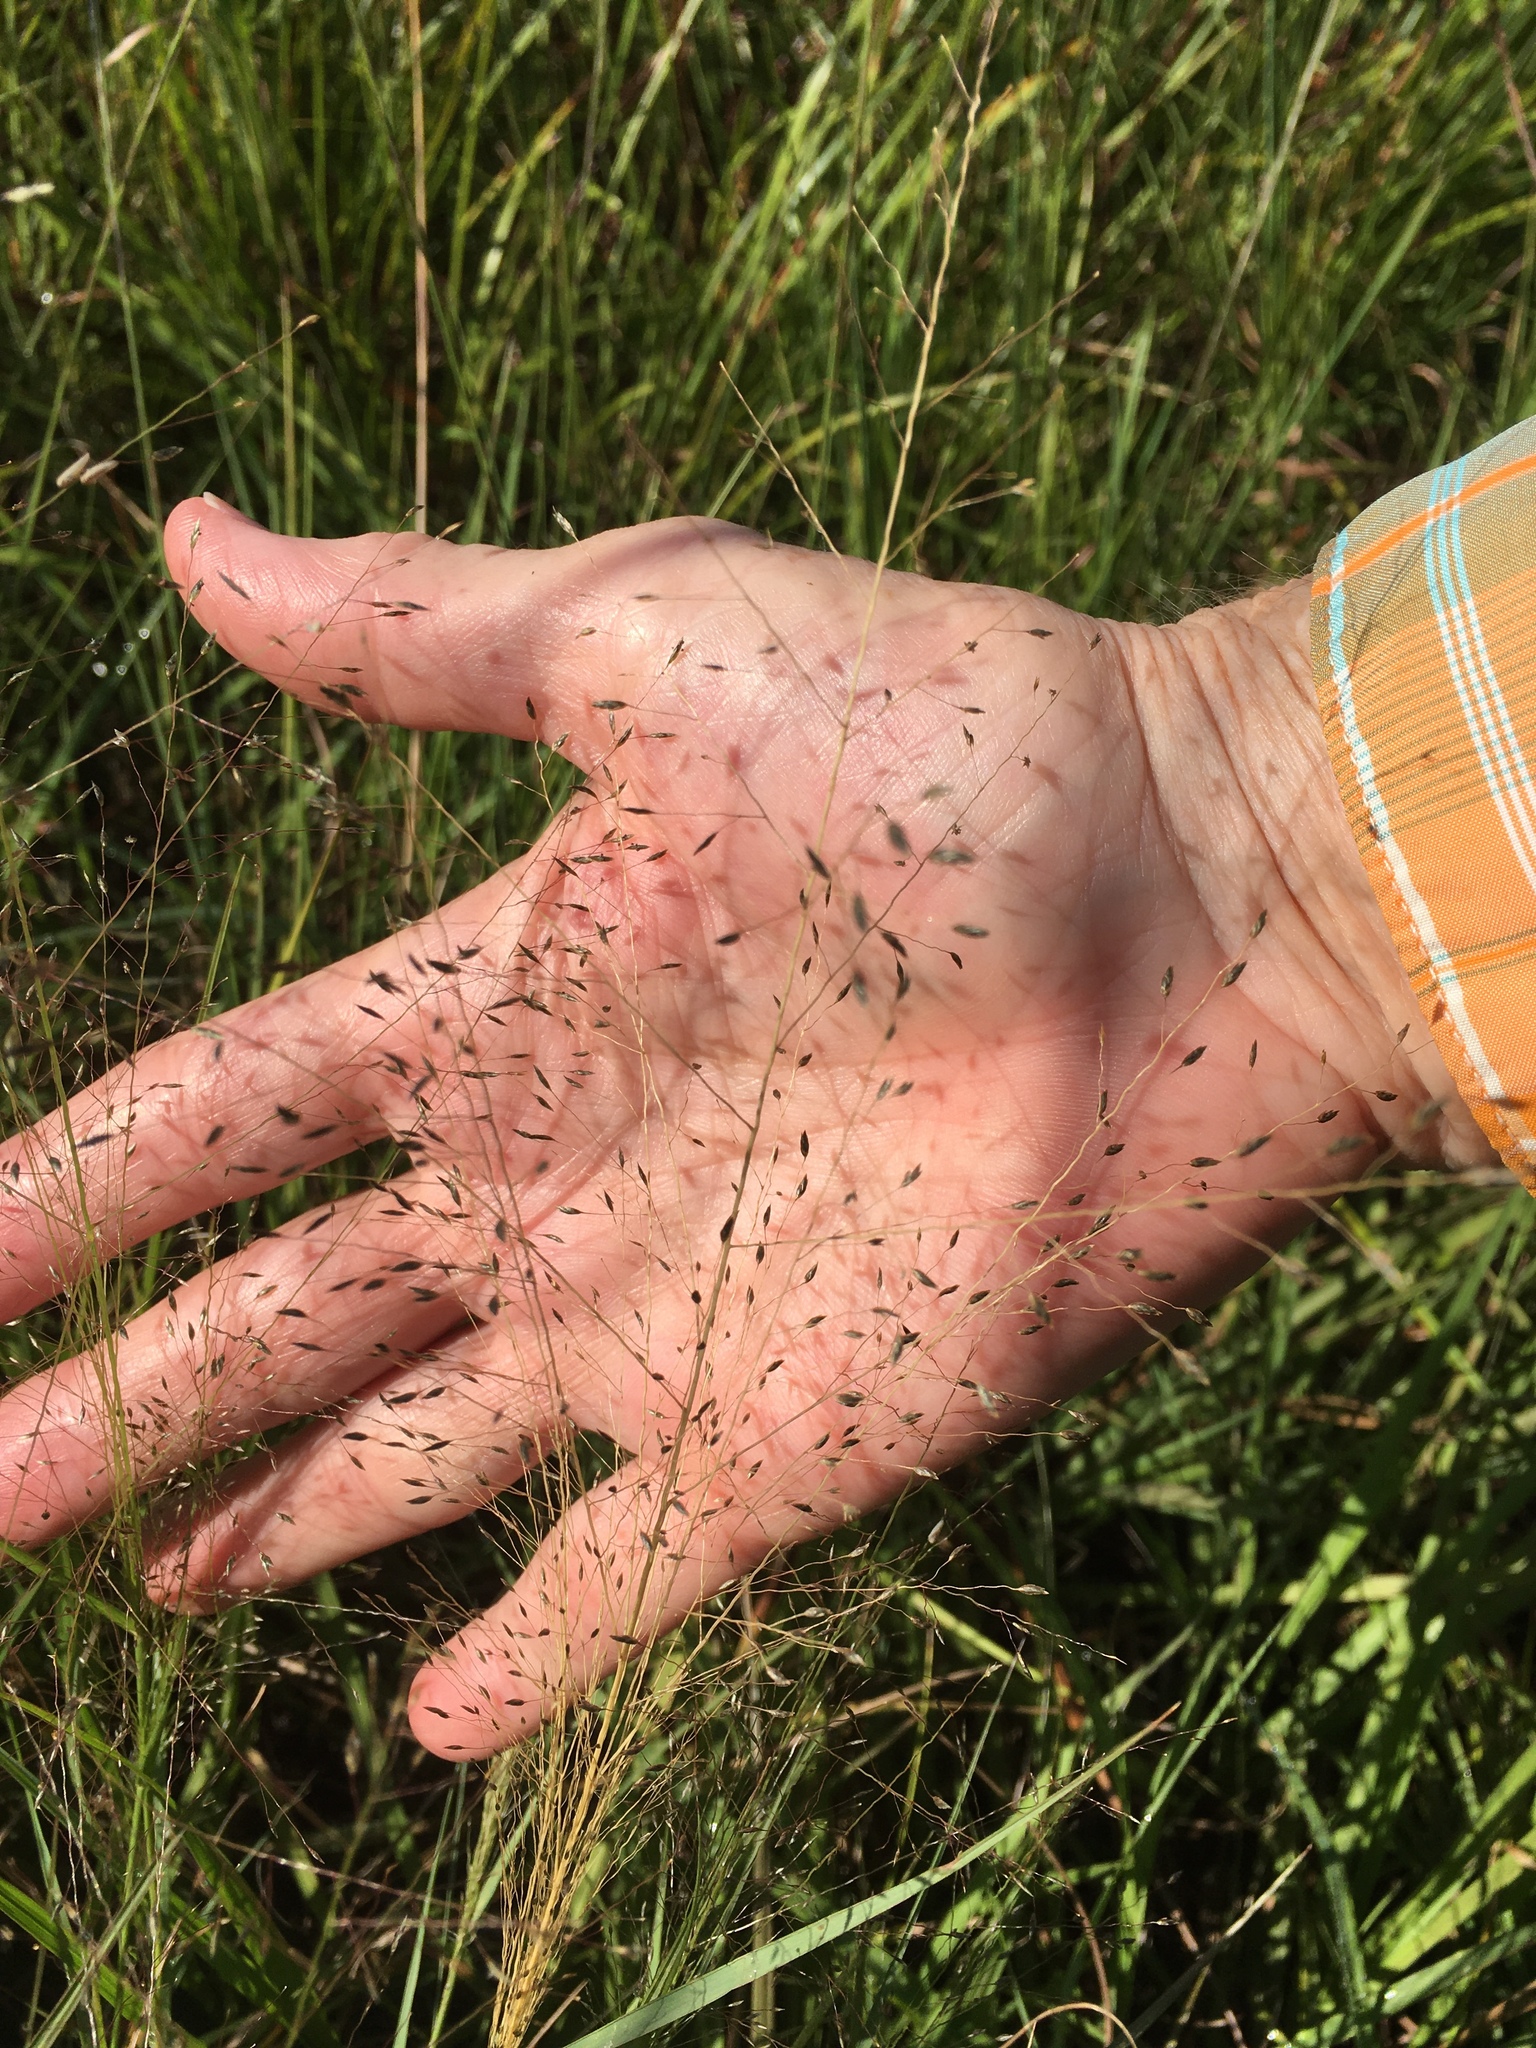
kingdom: Plantae
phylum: Tracheophyta
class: Liliopsida
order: Poales
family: Poaceae
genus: Eragrostis
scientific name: Eragrostis spectabilis
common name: Petticoat-climber
